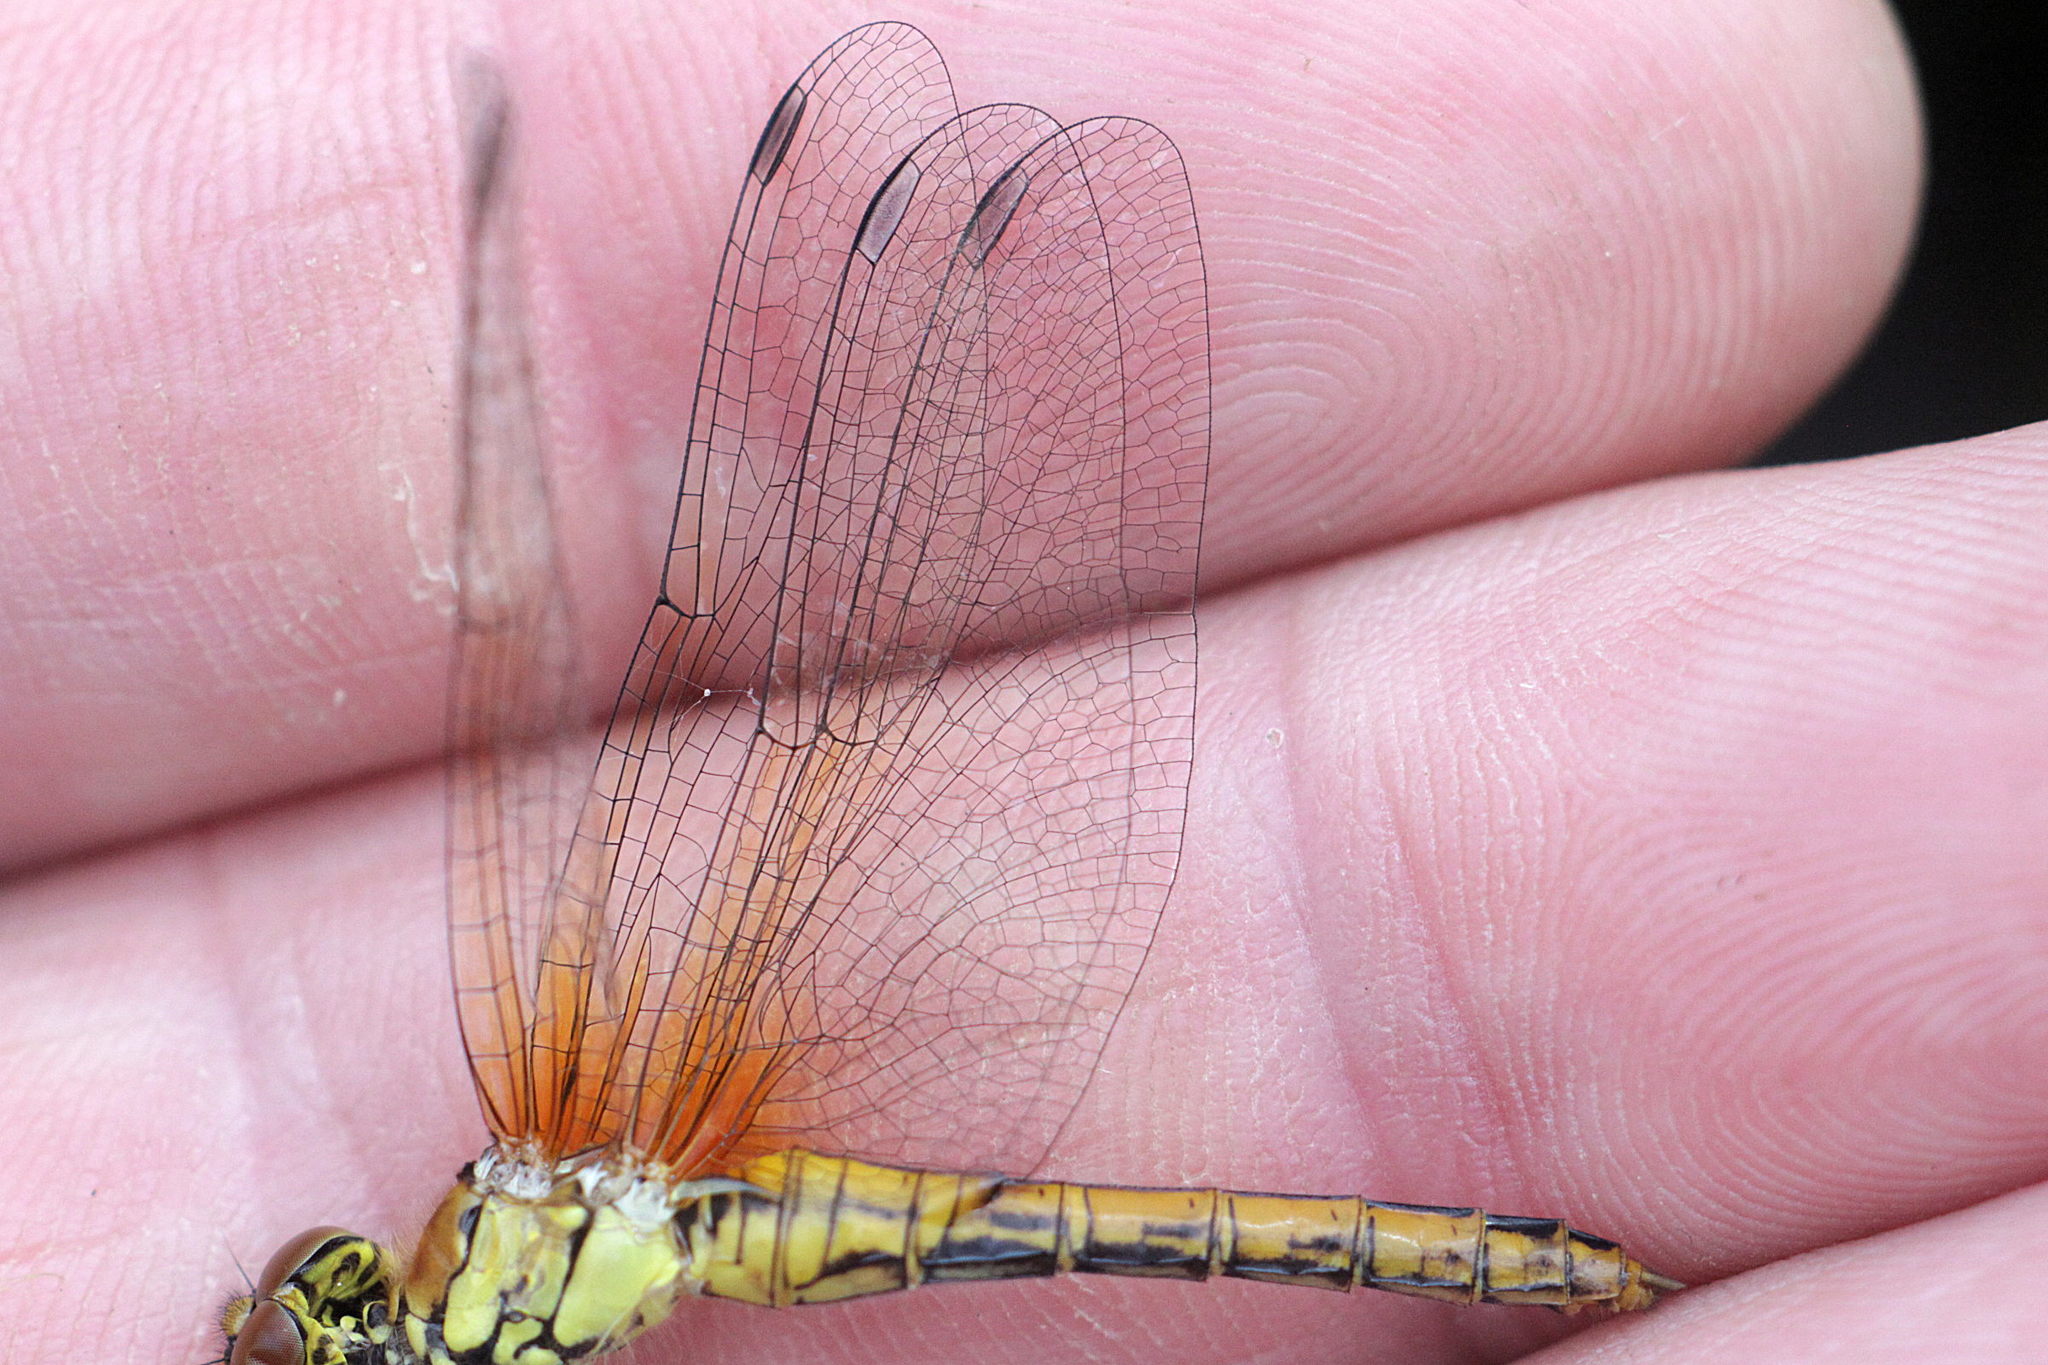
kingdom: Animalia
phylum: Arthropoda
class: Insecta
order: Odonata
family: Libellulidae
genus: Sympetrum
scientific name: Sympetrum sanguineum
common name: Ruddy darter
